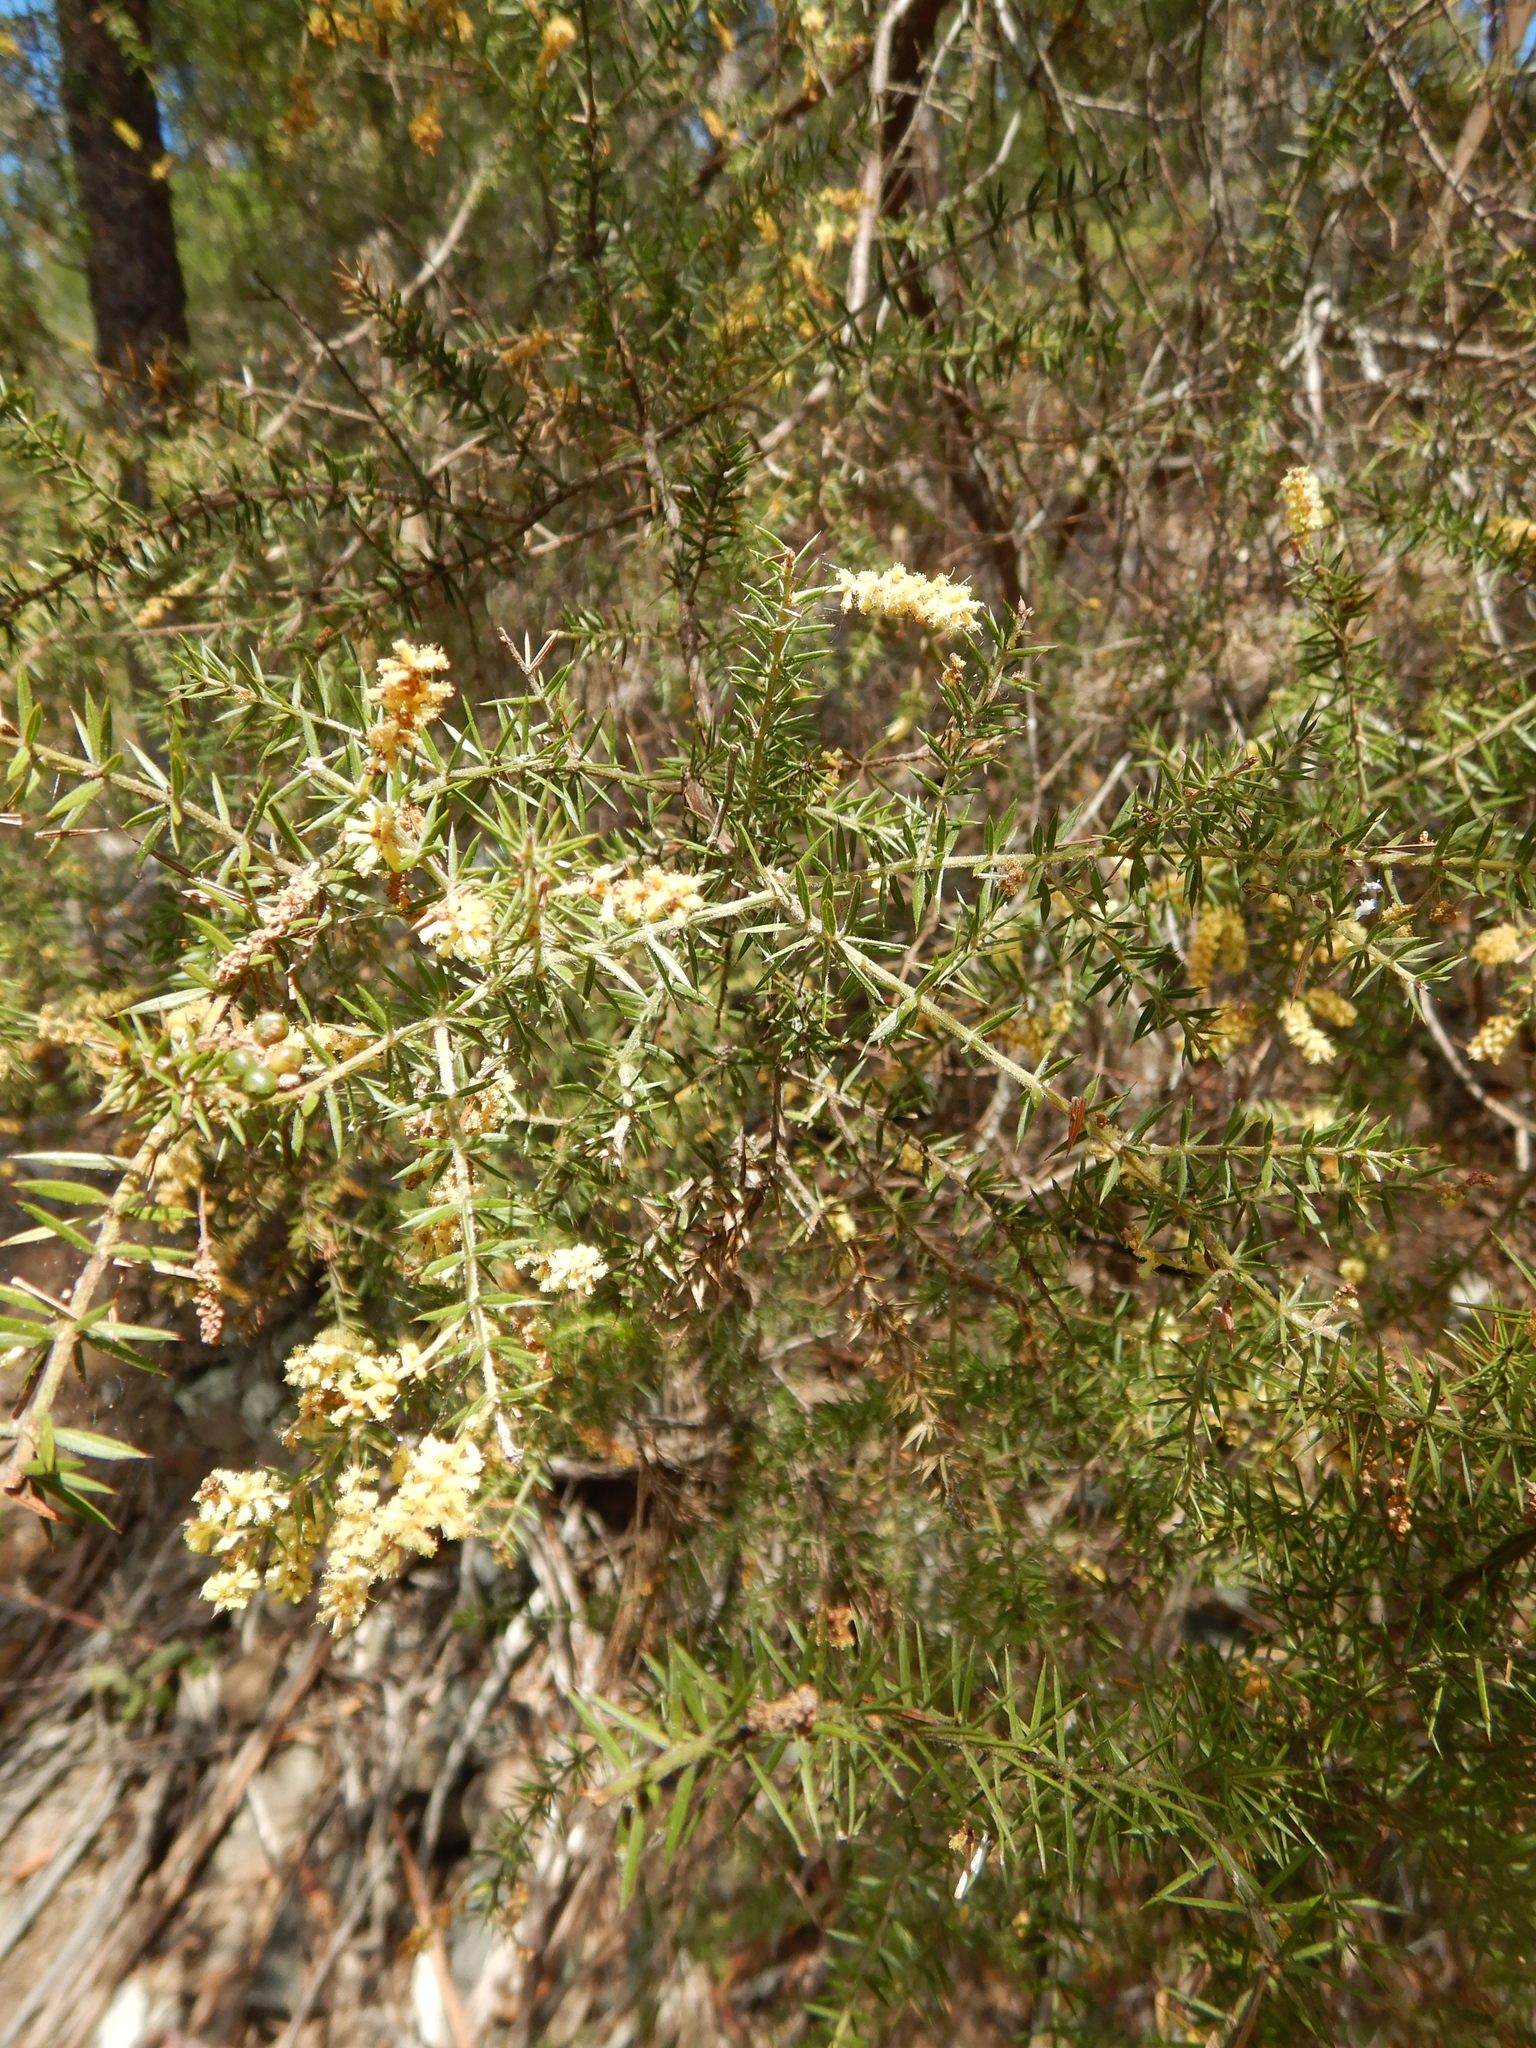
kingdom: Plantae
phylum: Tracheophyta
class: Magnoliopsida
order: Fabales
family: Fabaceae
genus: Acacia
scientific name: Acacia verticillata
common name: Prickly moses
